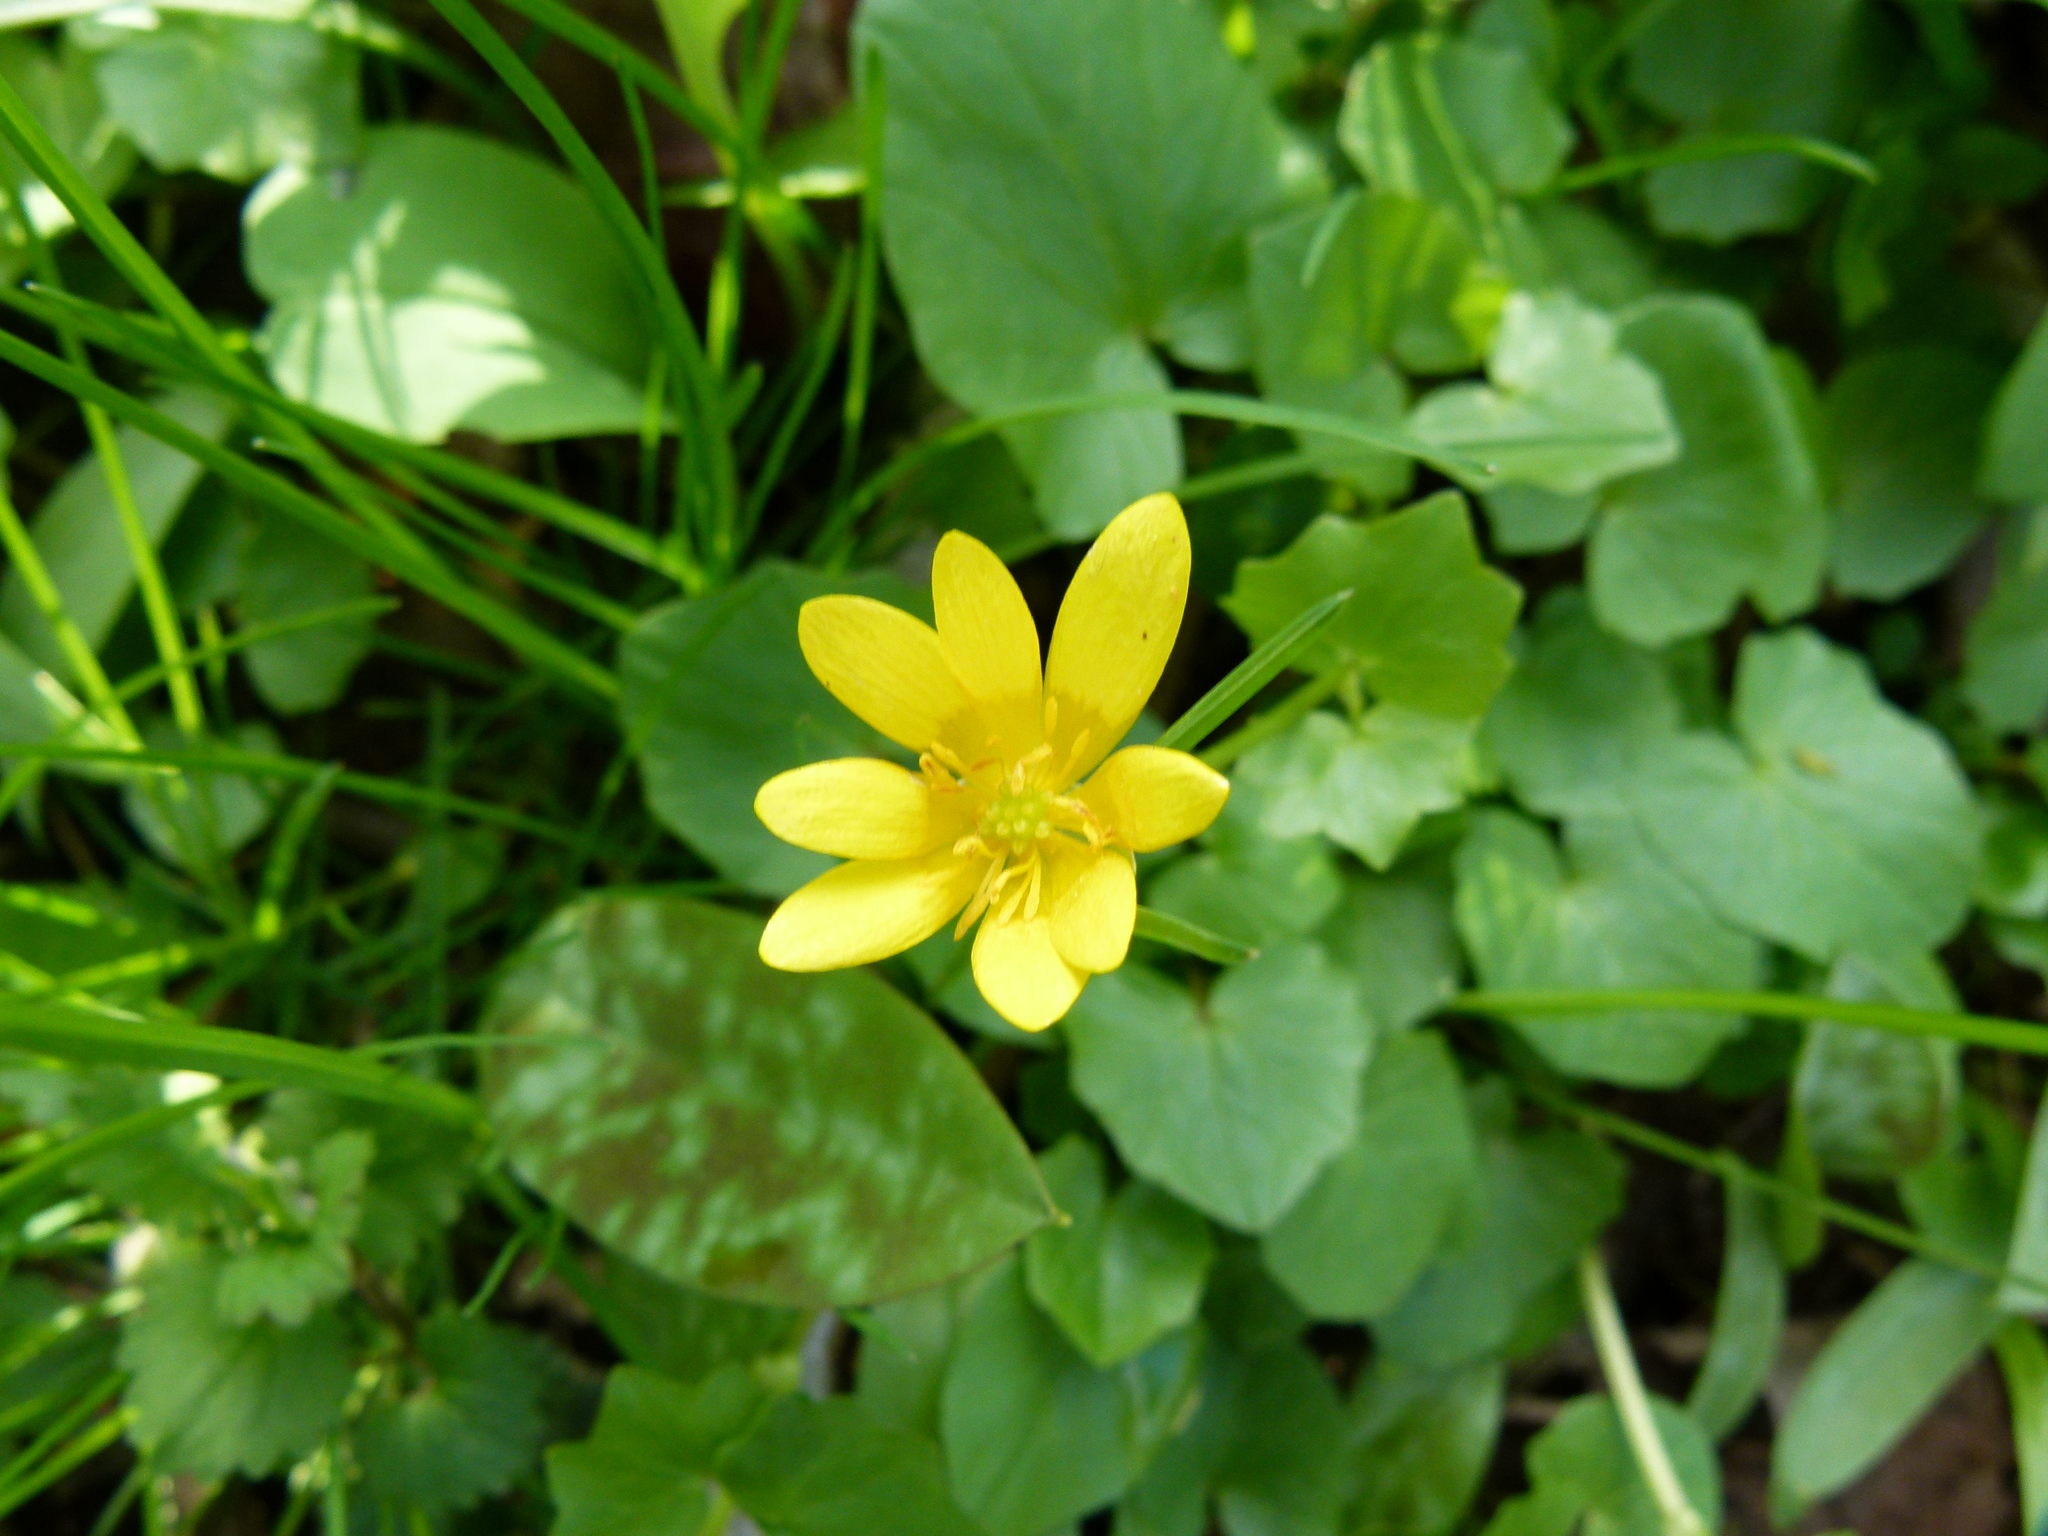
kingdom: Plantae
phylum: Tracheophyta
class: Magnoliopsida
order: Ranunculales
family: Ranunculaceae
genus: Ficaria
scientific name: Ficaria verna
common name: Lesser celandine
